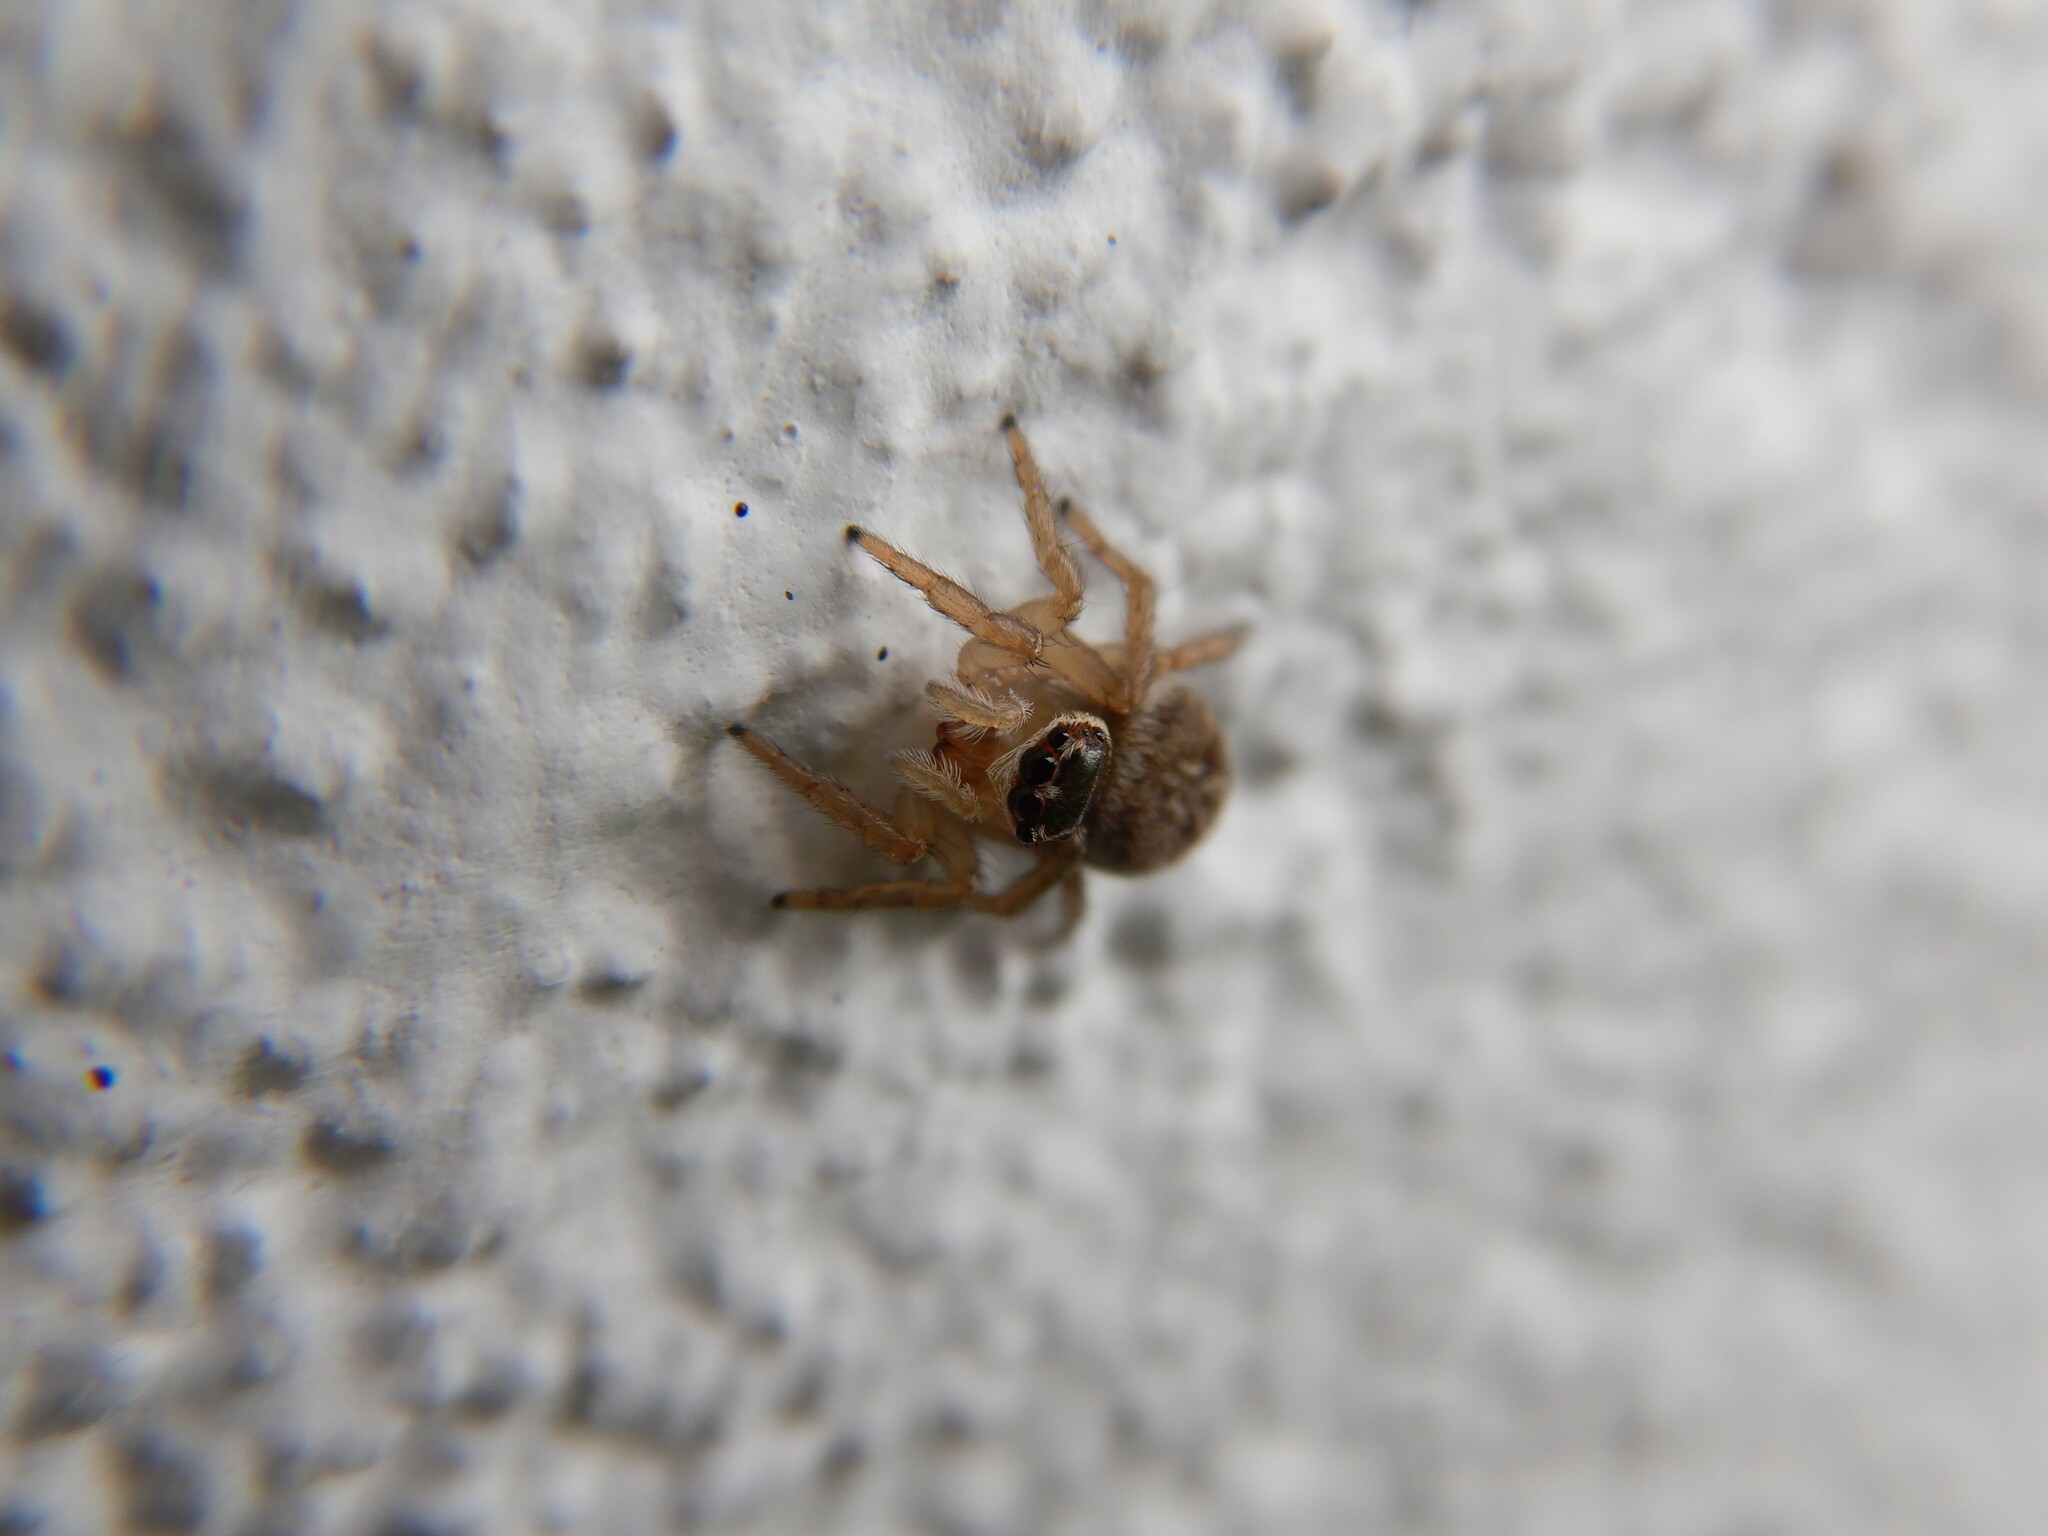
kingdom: Animalia
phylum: Arthropoda
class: Arachnida
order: Araneae
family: Salticidae
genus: Maratus
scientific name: Maratus griseus
